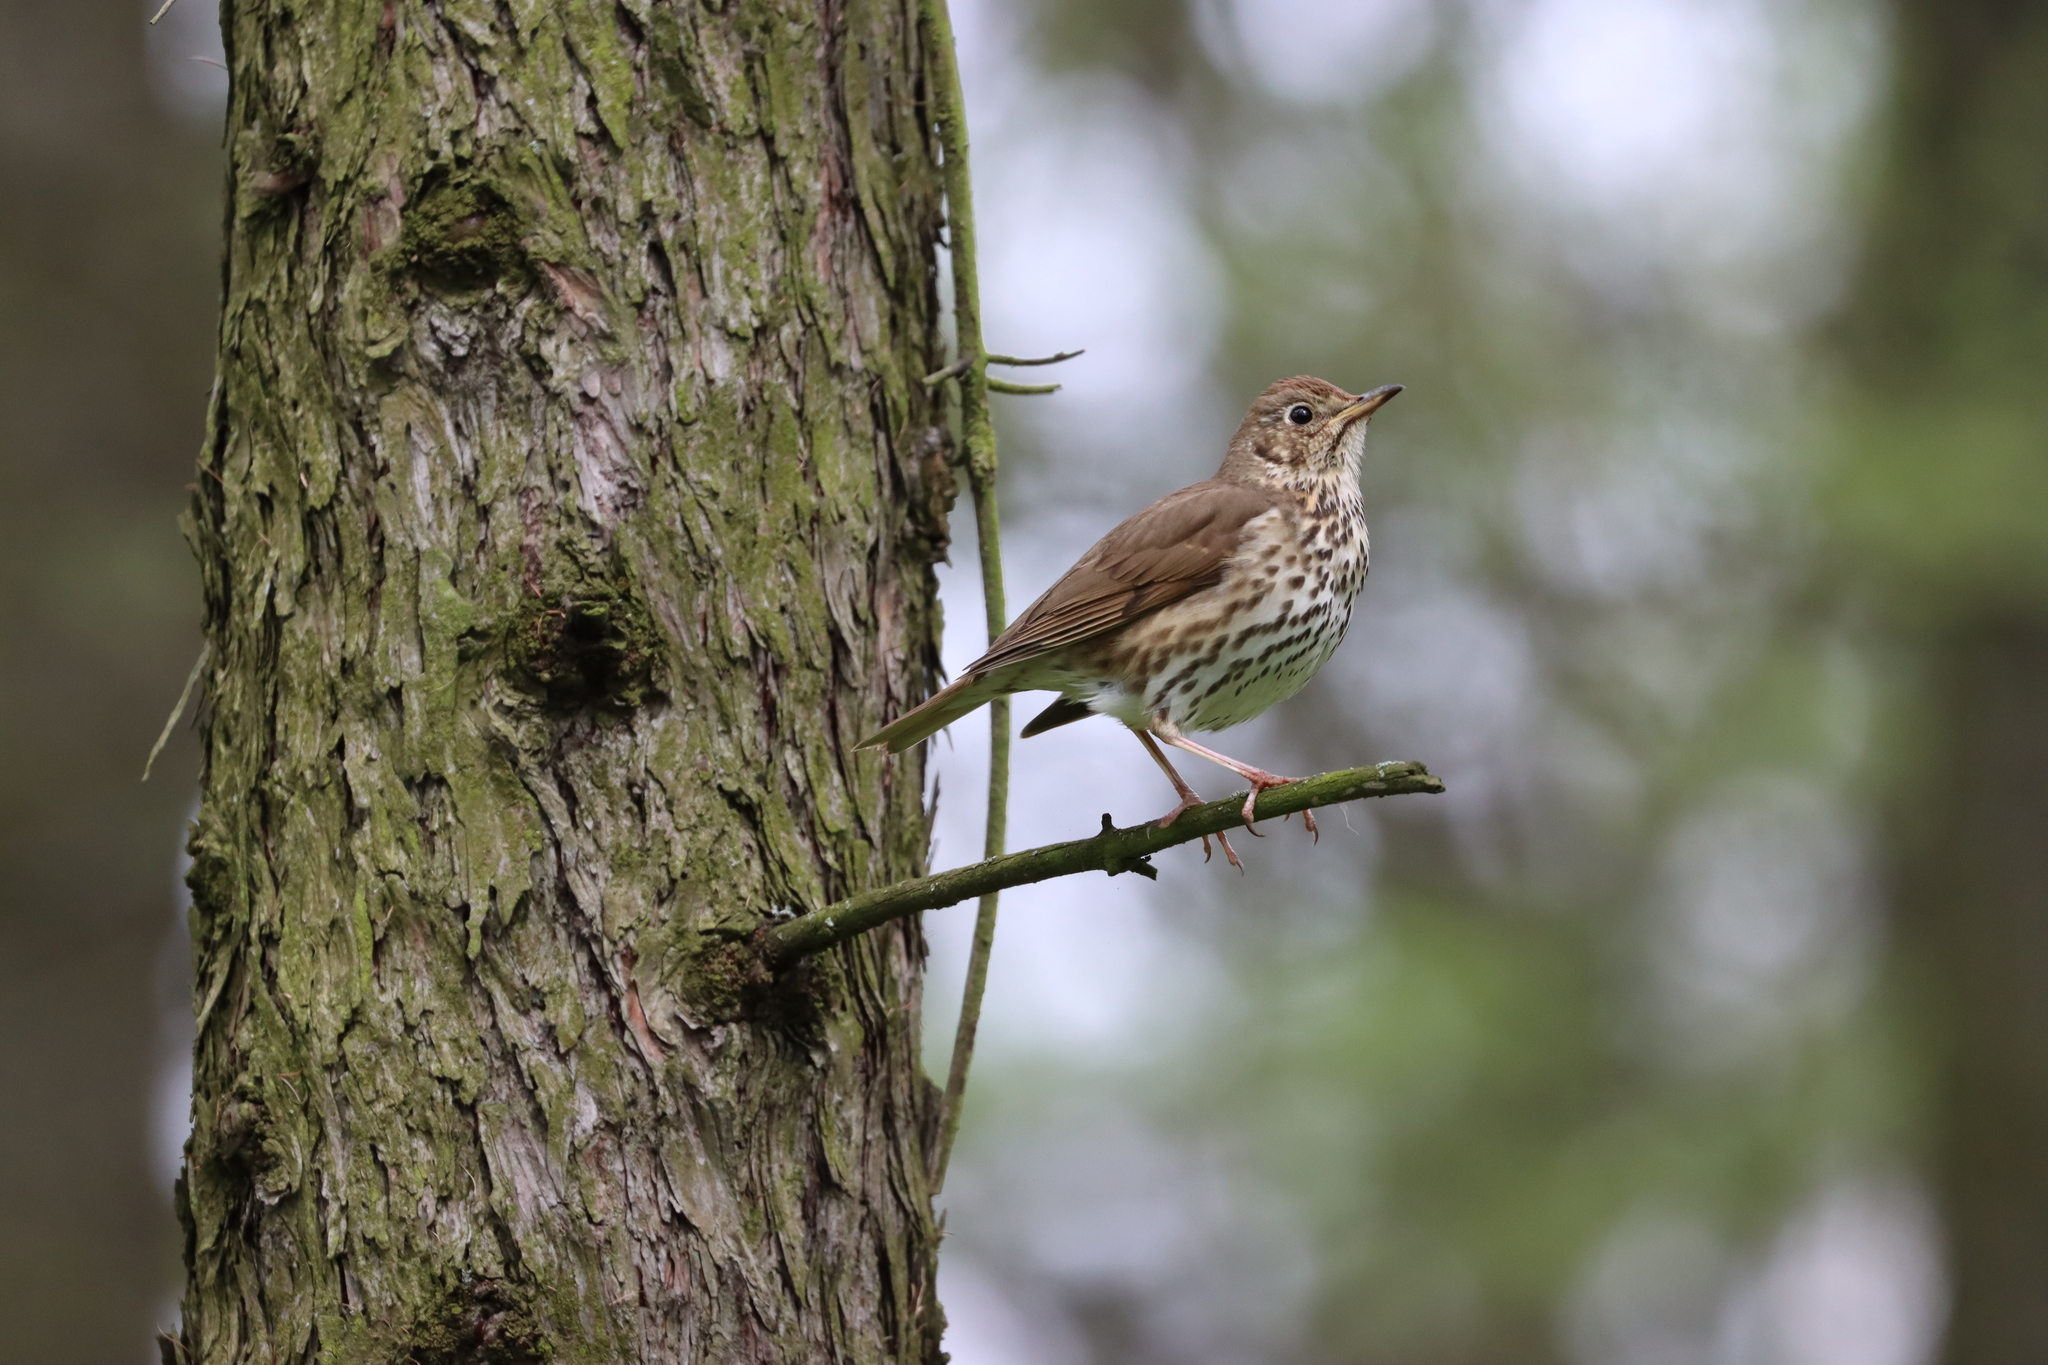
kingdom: Animalia
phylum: Chordata
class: Aves
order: Passeriformes
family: Turdidae
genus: Turdus
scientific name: Turdus philomelos
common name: Song thrush
